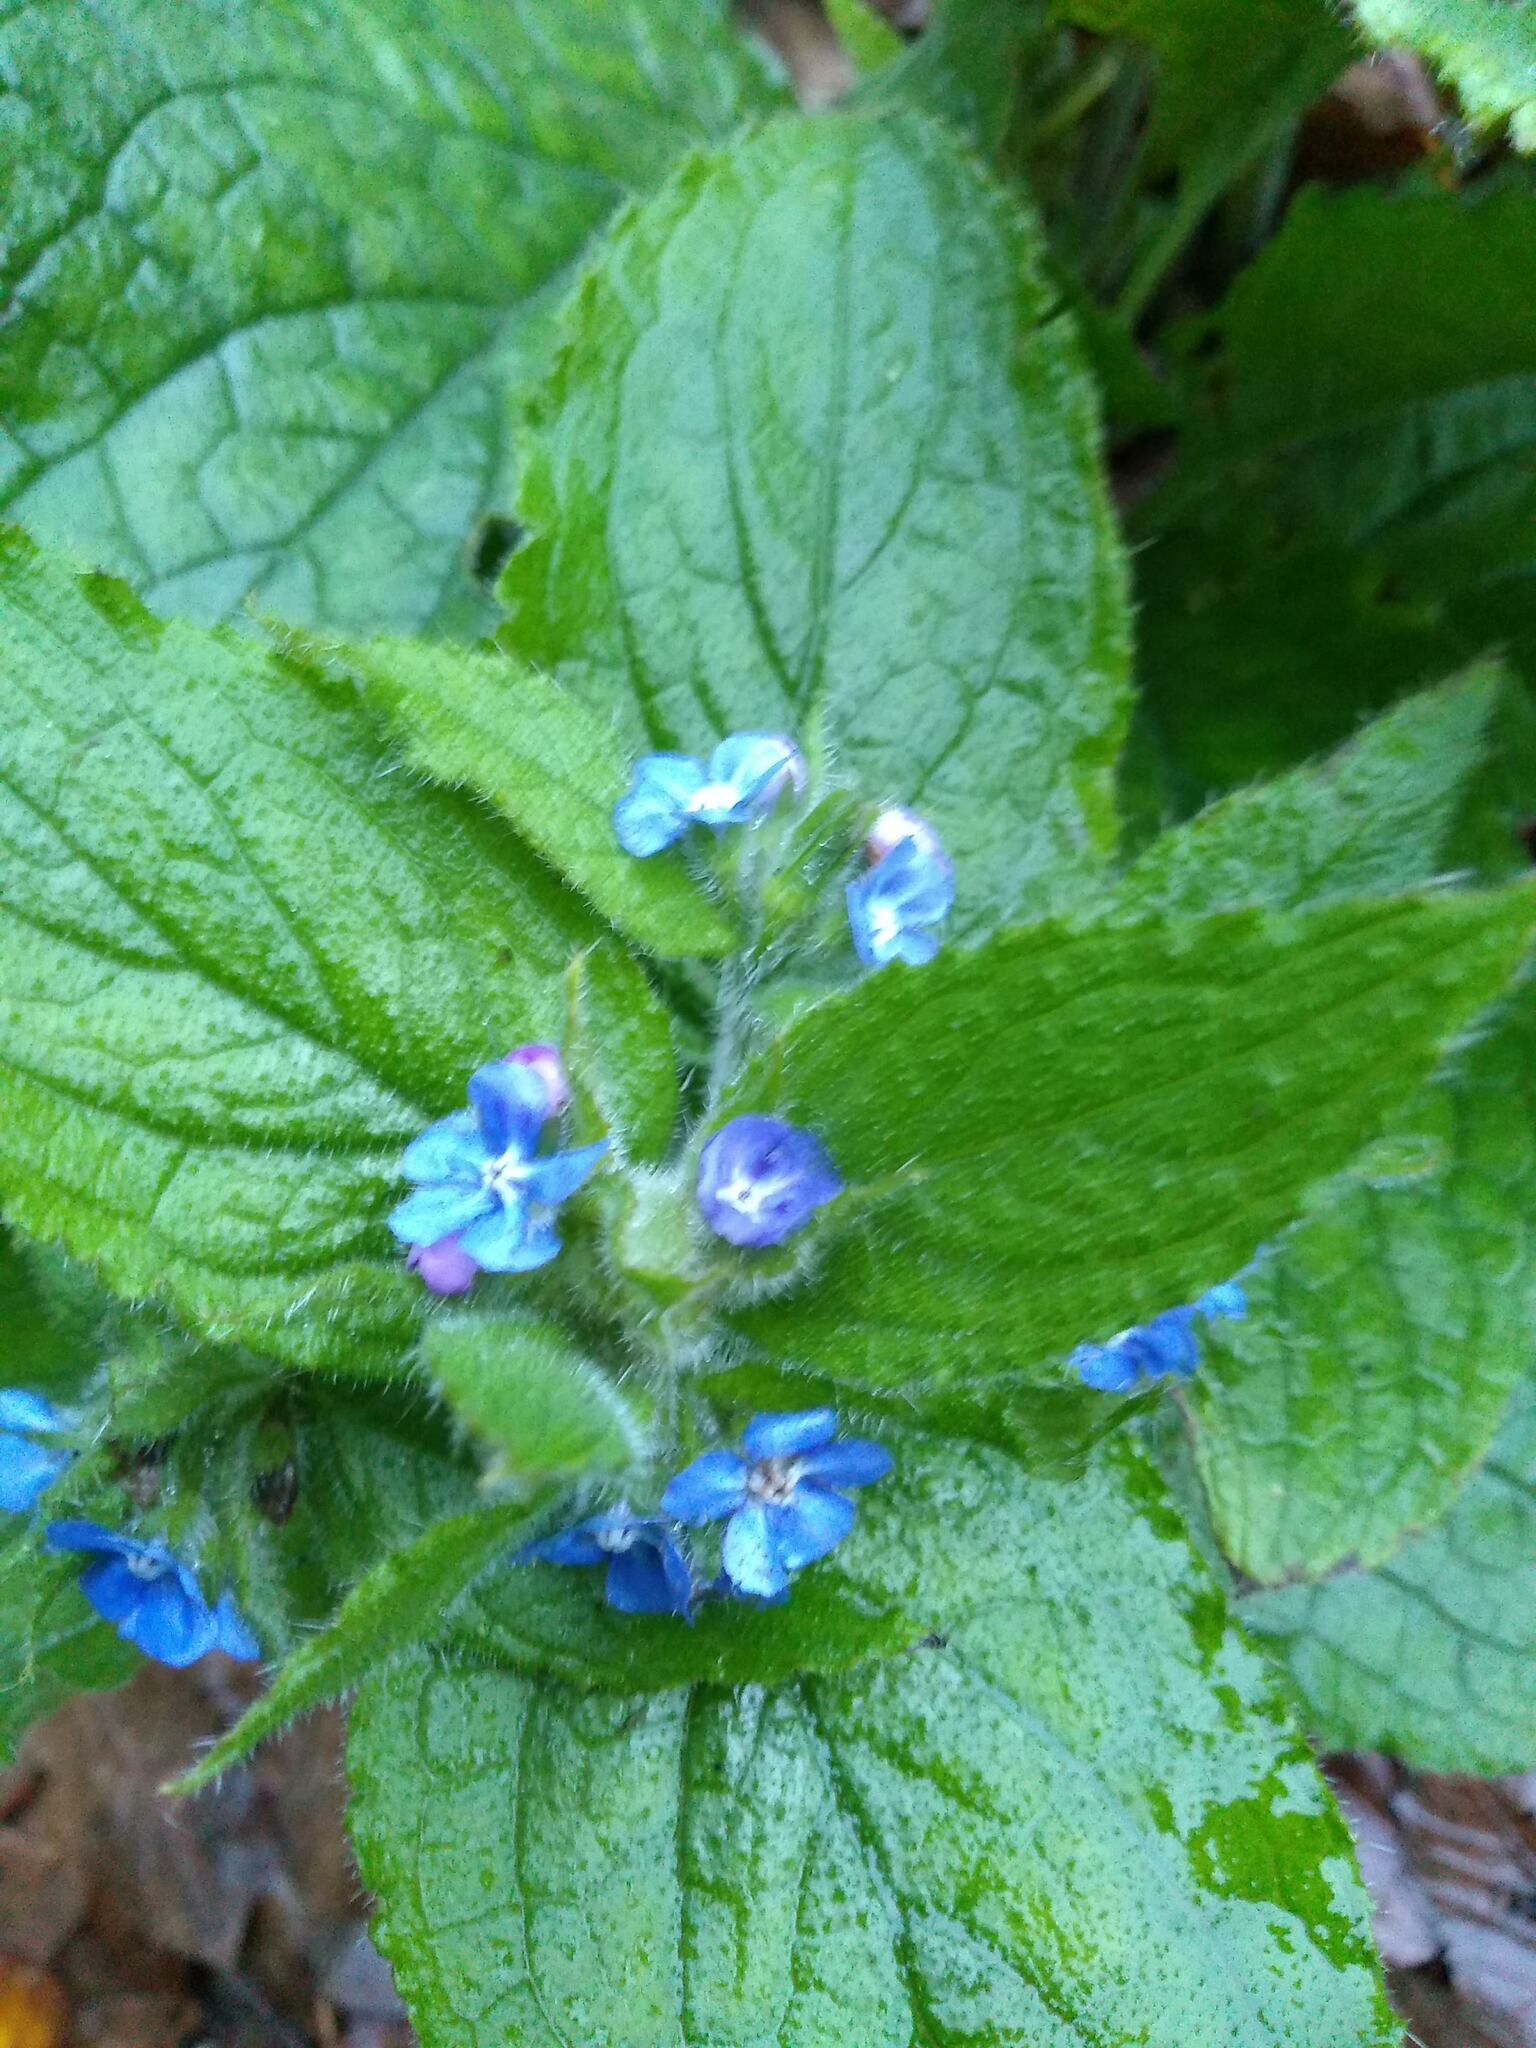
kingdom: Plantae
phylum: Tracheophyta
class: Magnoliopsida
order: Boraginales
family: Boraginaceae
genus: Pentaglottis
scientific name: Pentaglottis sempervirens
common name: Green alkanet
